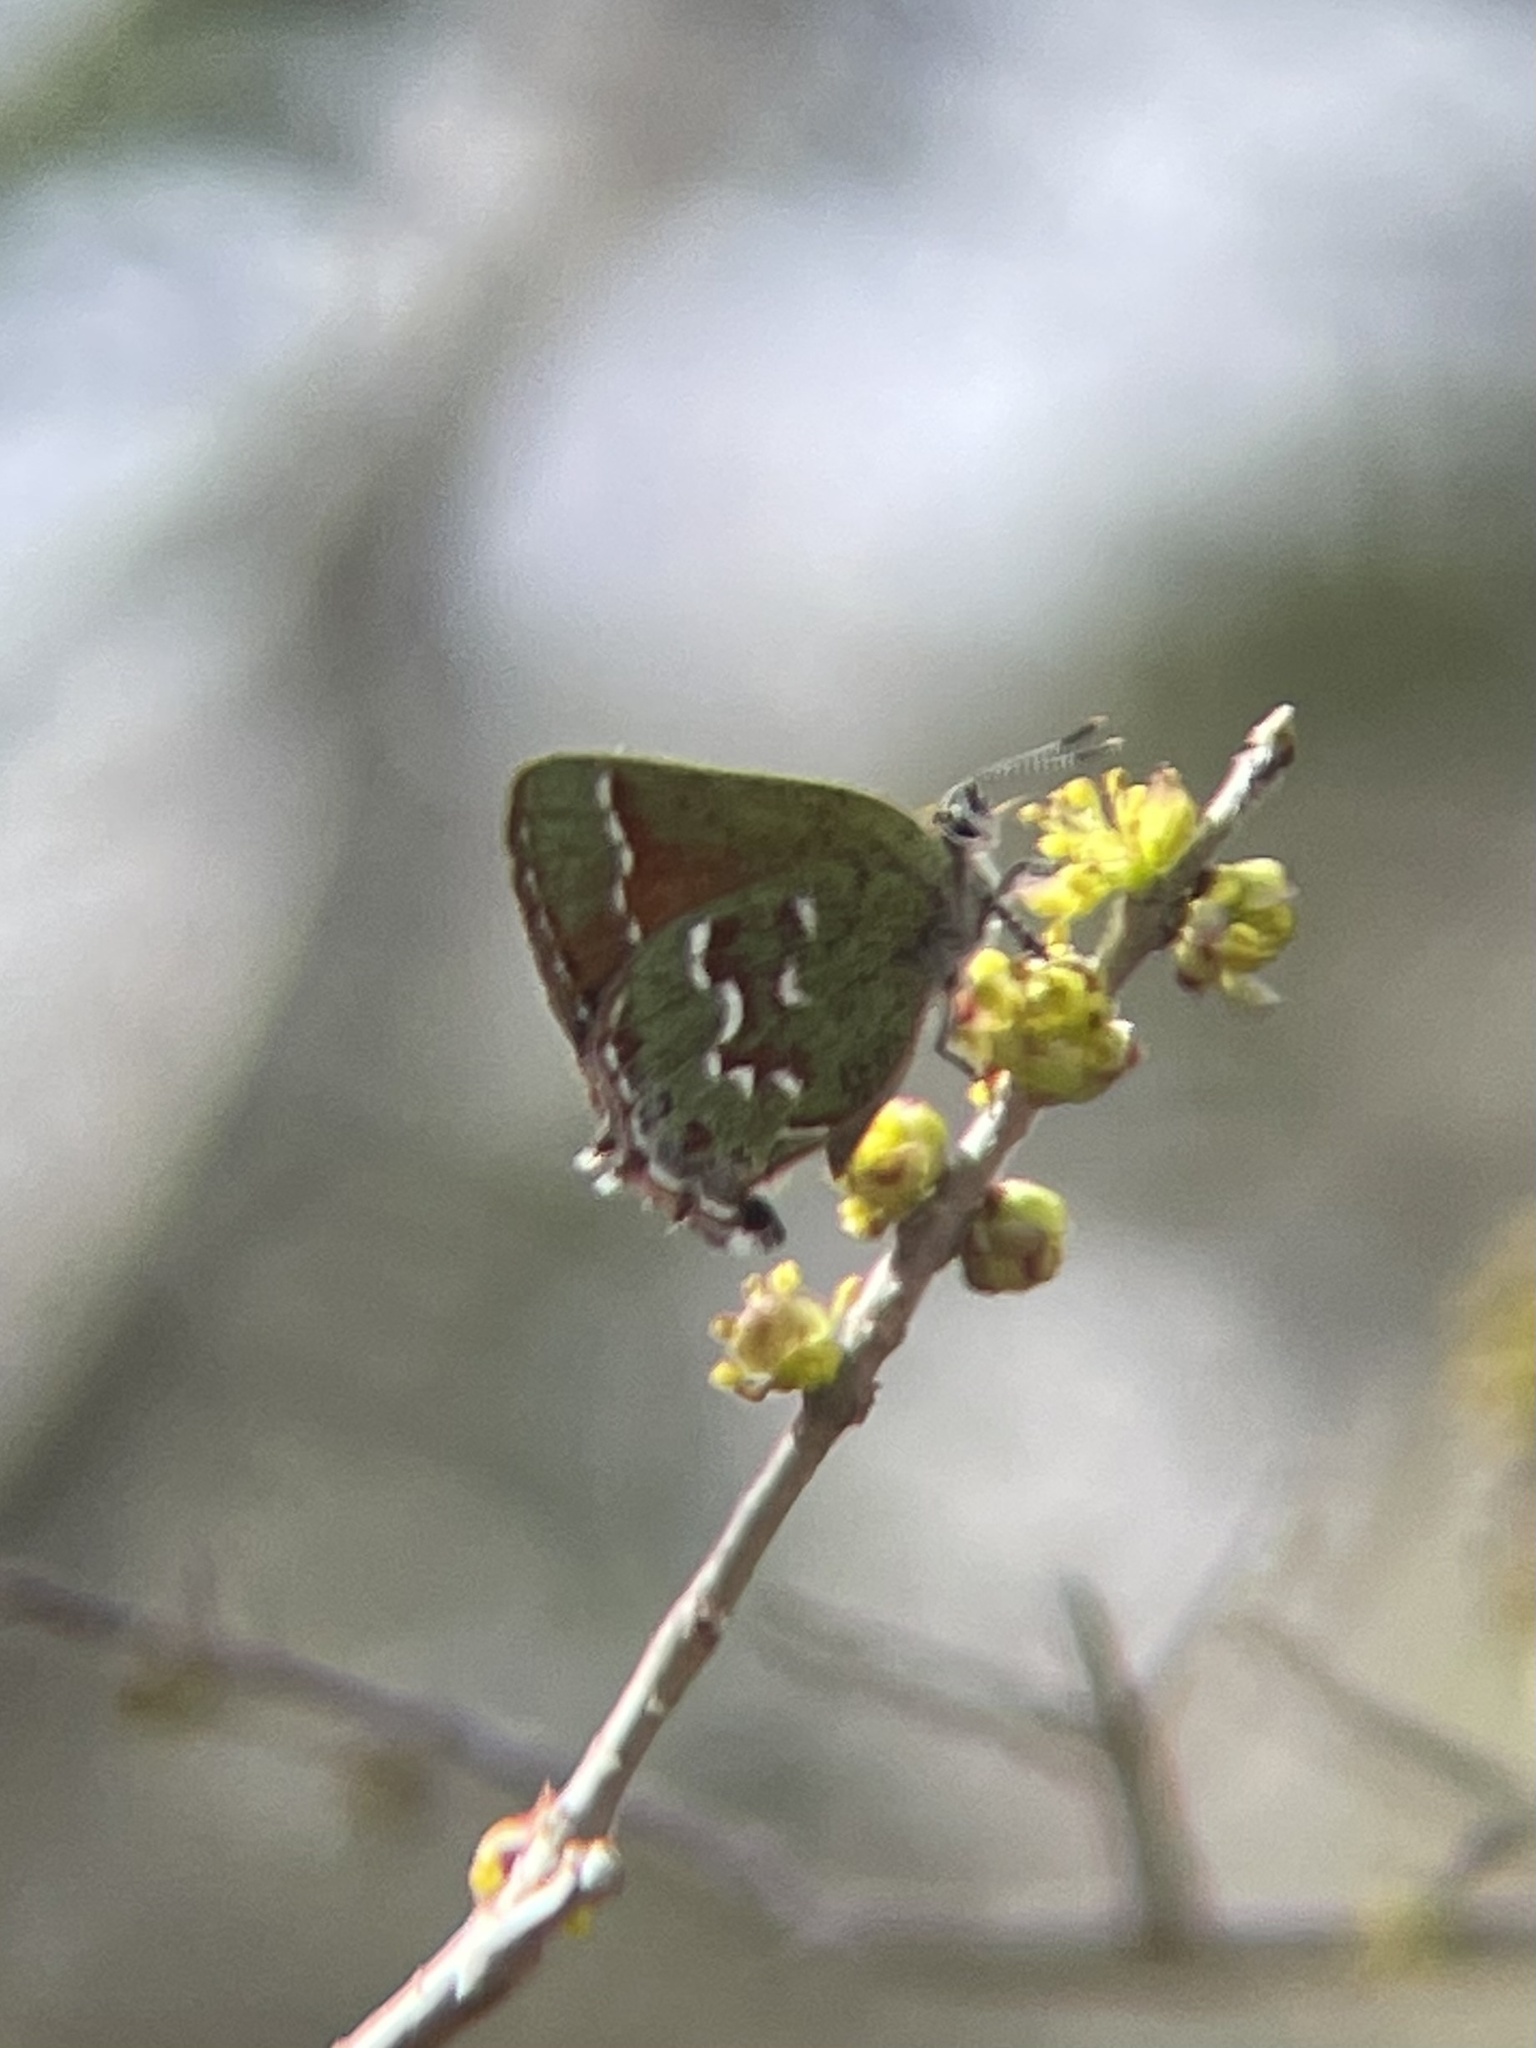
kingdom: Animalia
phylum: Arthropoda
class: Insecta
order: Lepidoptera
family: Lycaenidae
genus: Mitoura
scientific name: Mitoura gryneus
